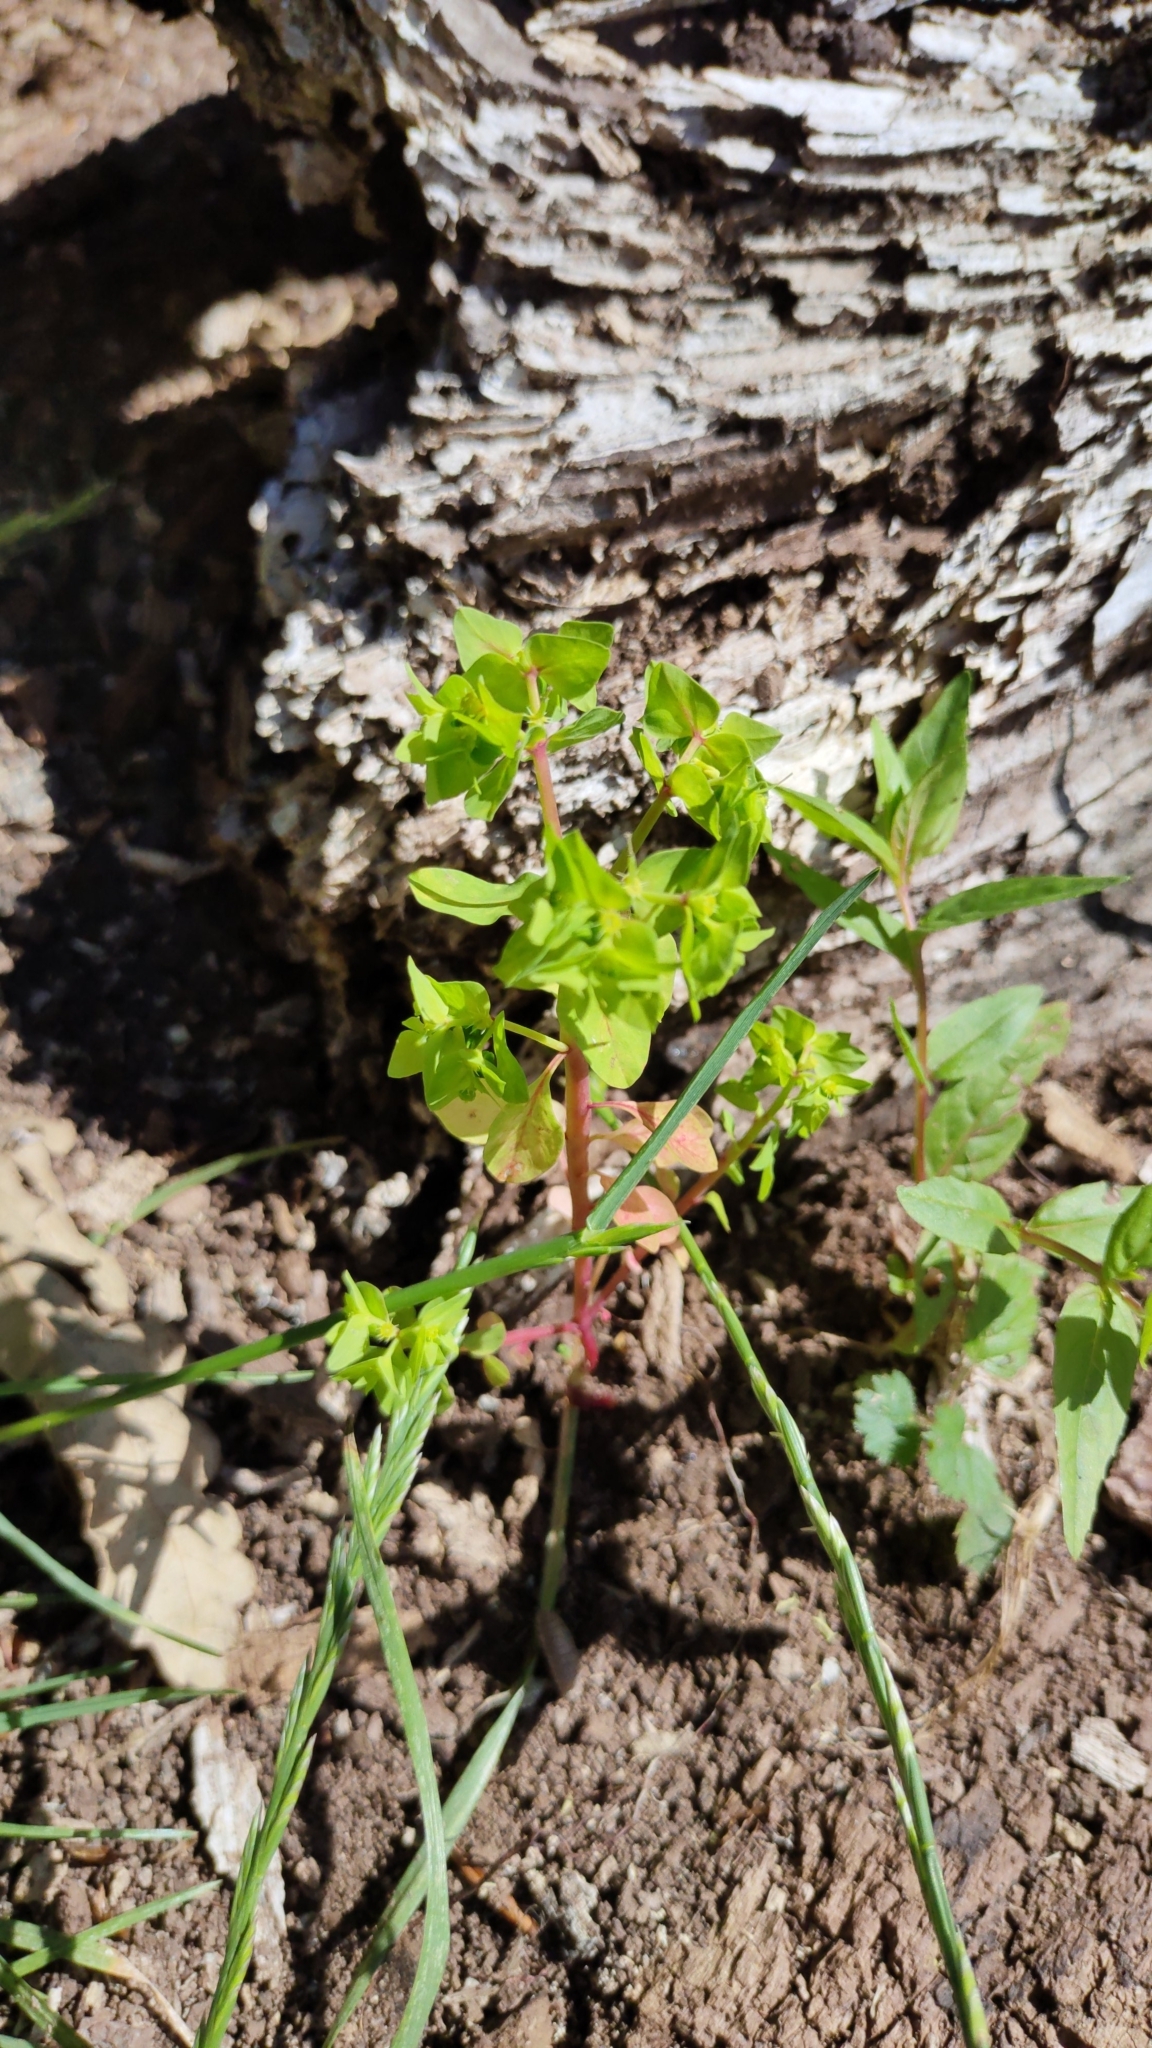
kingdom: Plantae
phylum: Tracheophyta
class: Magnoliopsida
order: Malpighiales
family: Euphorbiaceae
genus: Euphorbia
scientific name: Euphorbia peplus
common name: Petty spurge
